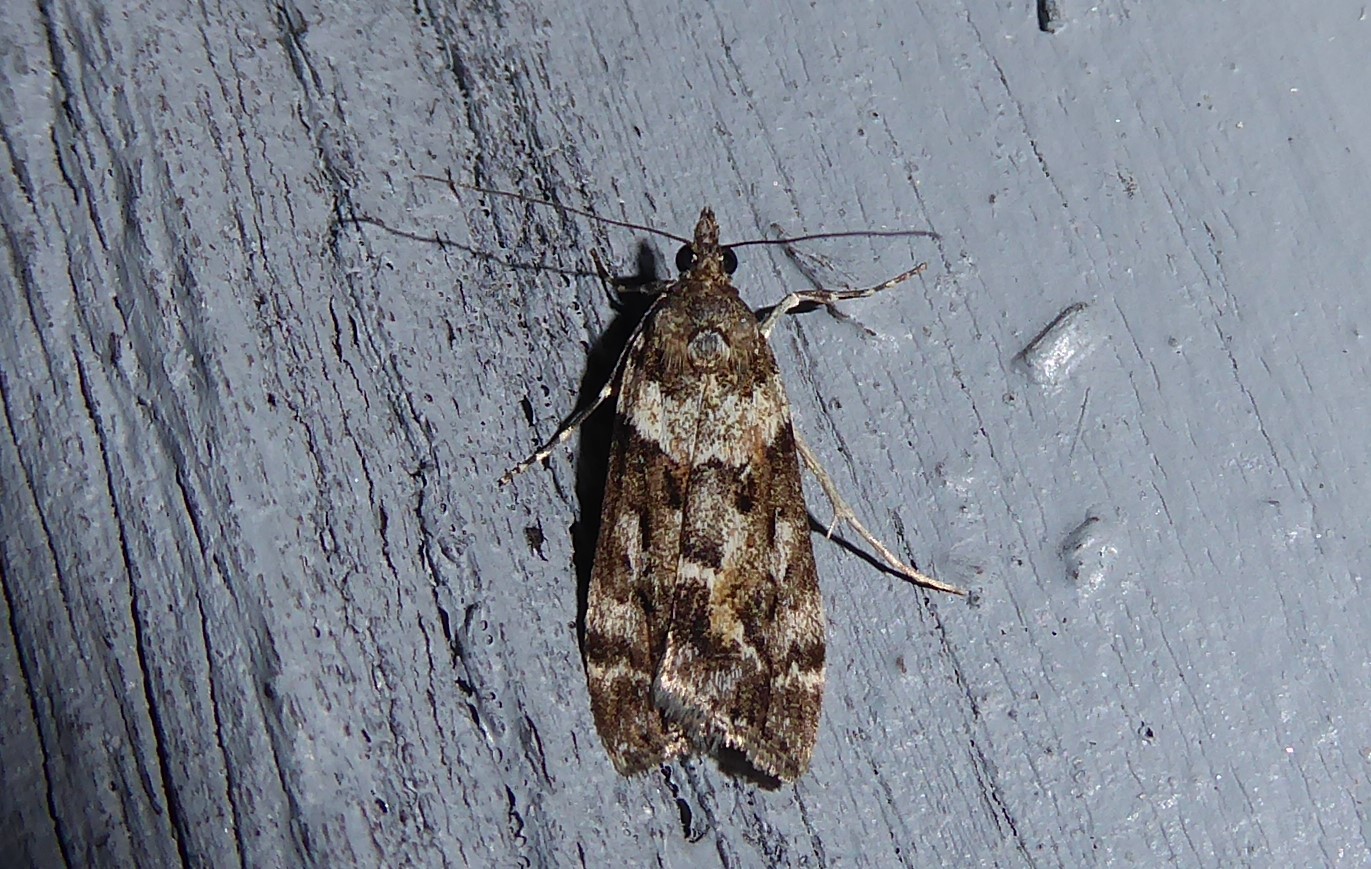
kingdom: Animalia
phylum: Arthropoda
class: Insecta
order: Lepidoptera
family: Crambidae
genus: Eudonia
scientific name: Eudonia submarginalis
